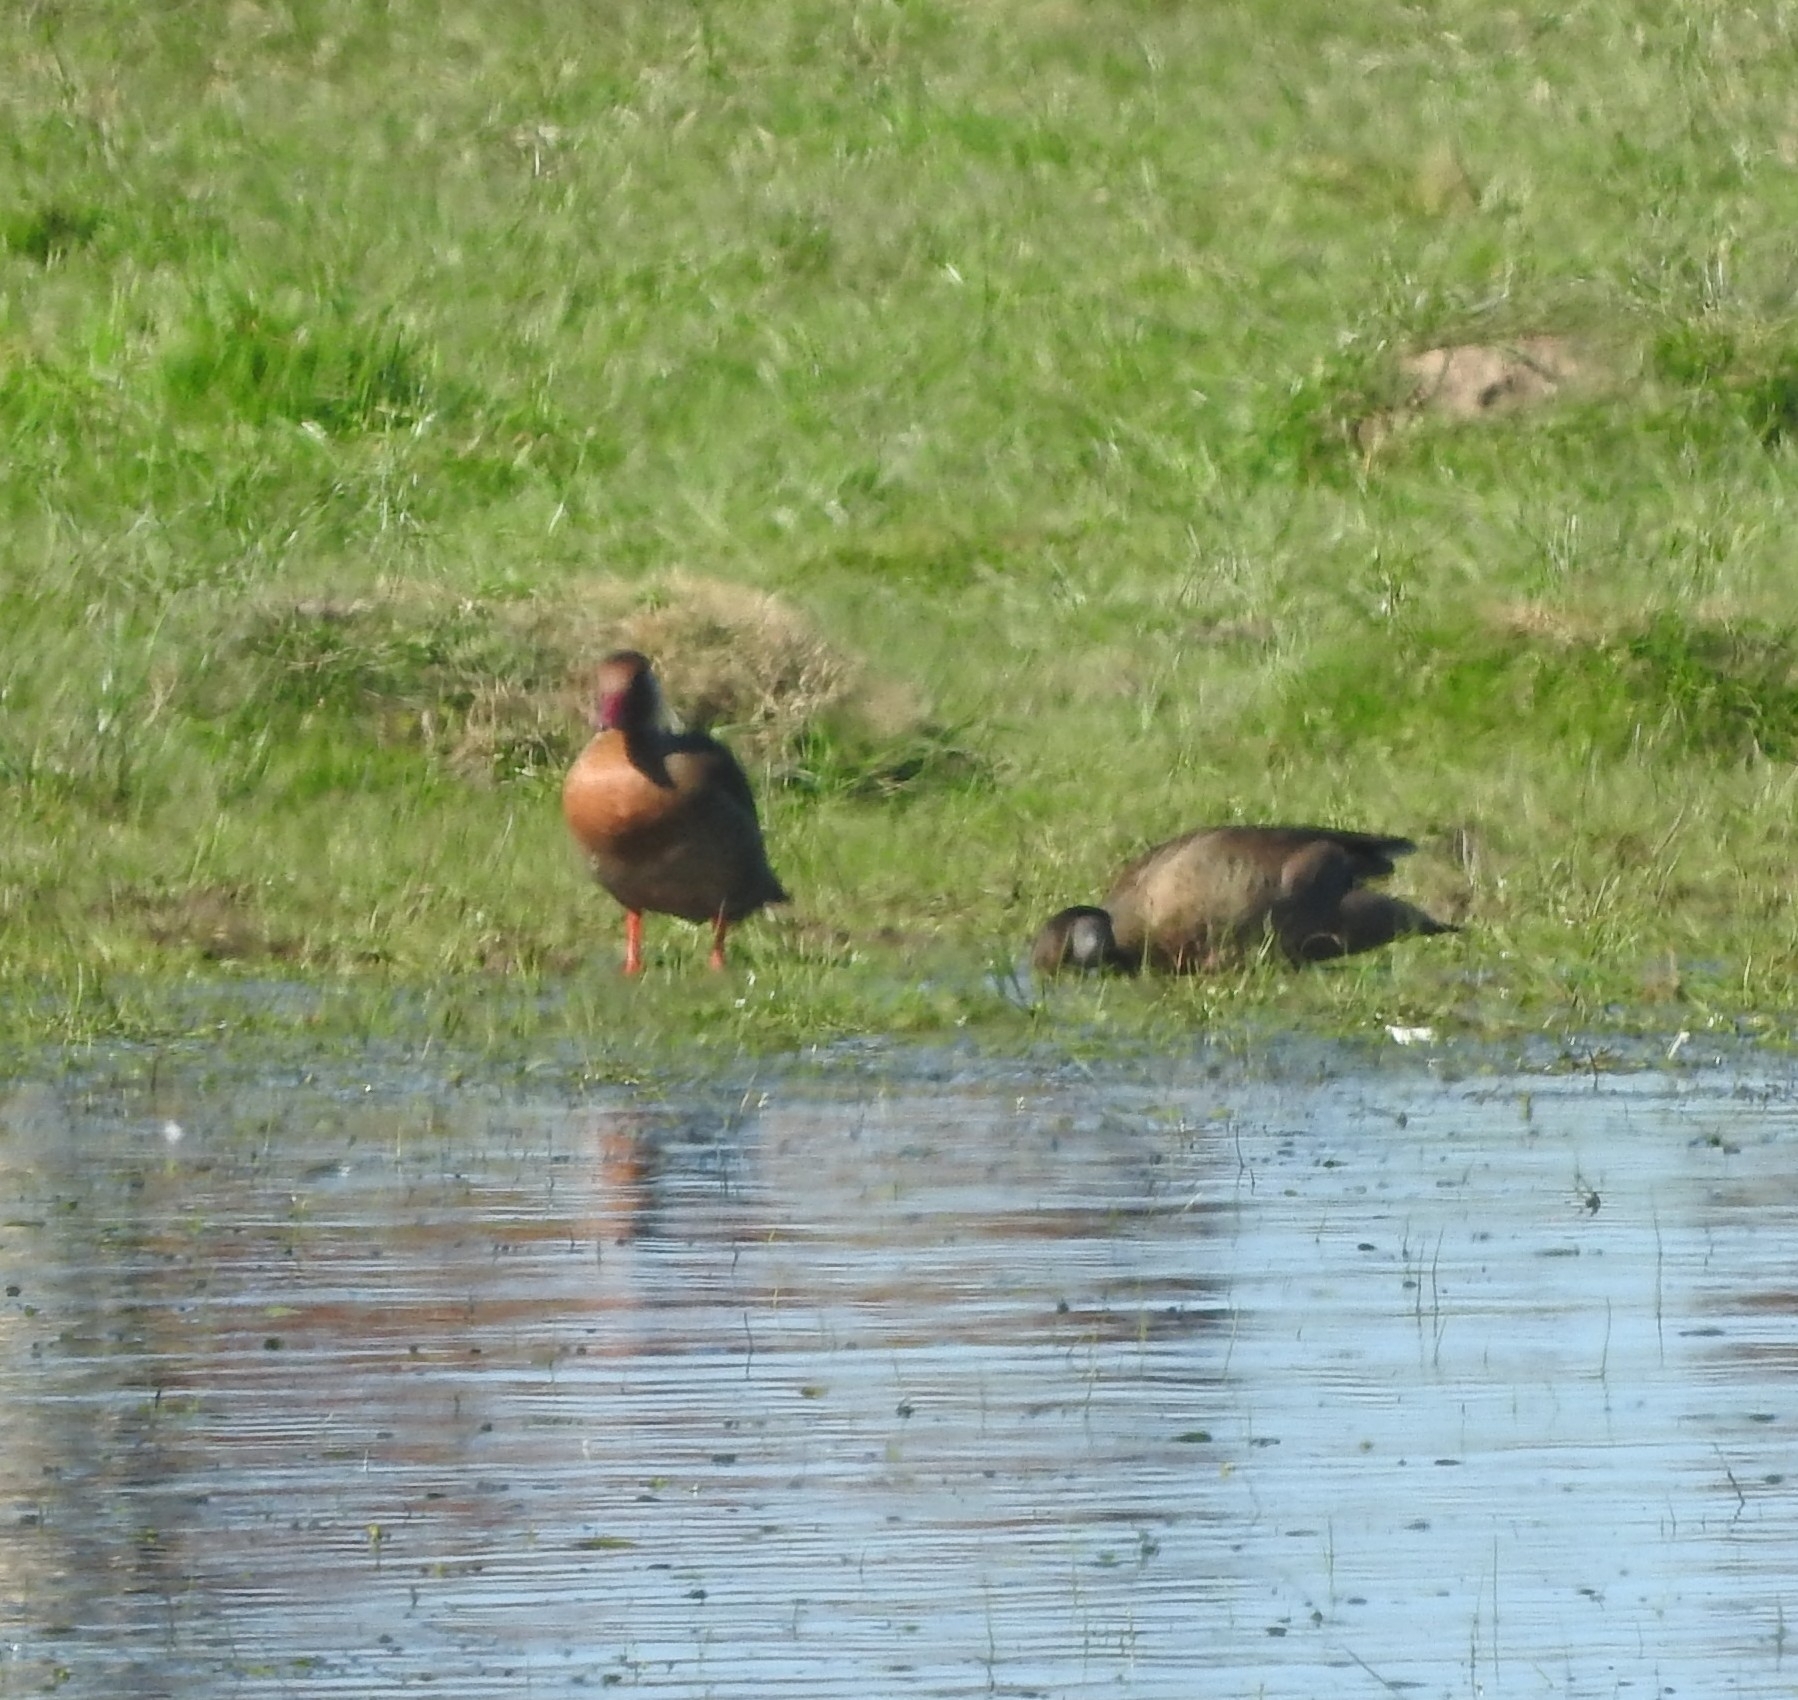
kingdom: Animalia
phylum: Chordata
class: Aves
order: Anseriformes
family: Anatidae
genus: Amazonetta
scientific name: Amazonetta brasiliensis
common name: Brazilian teal
